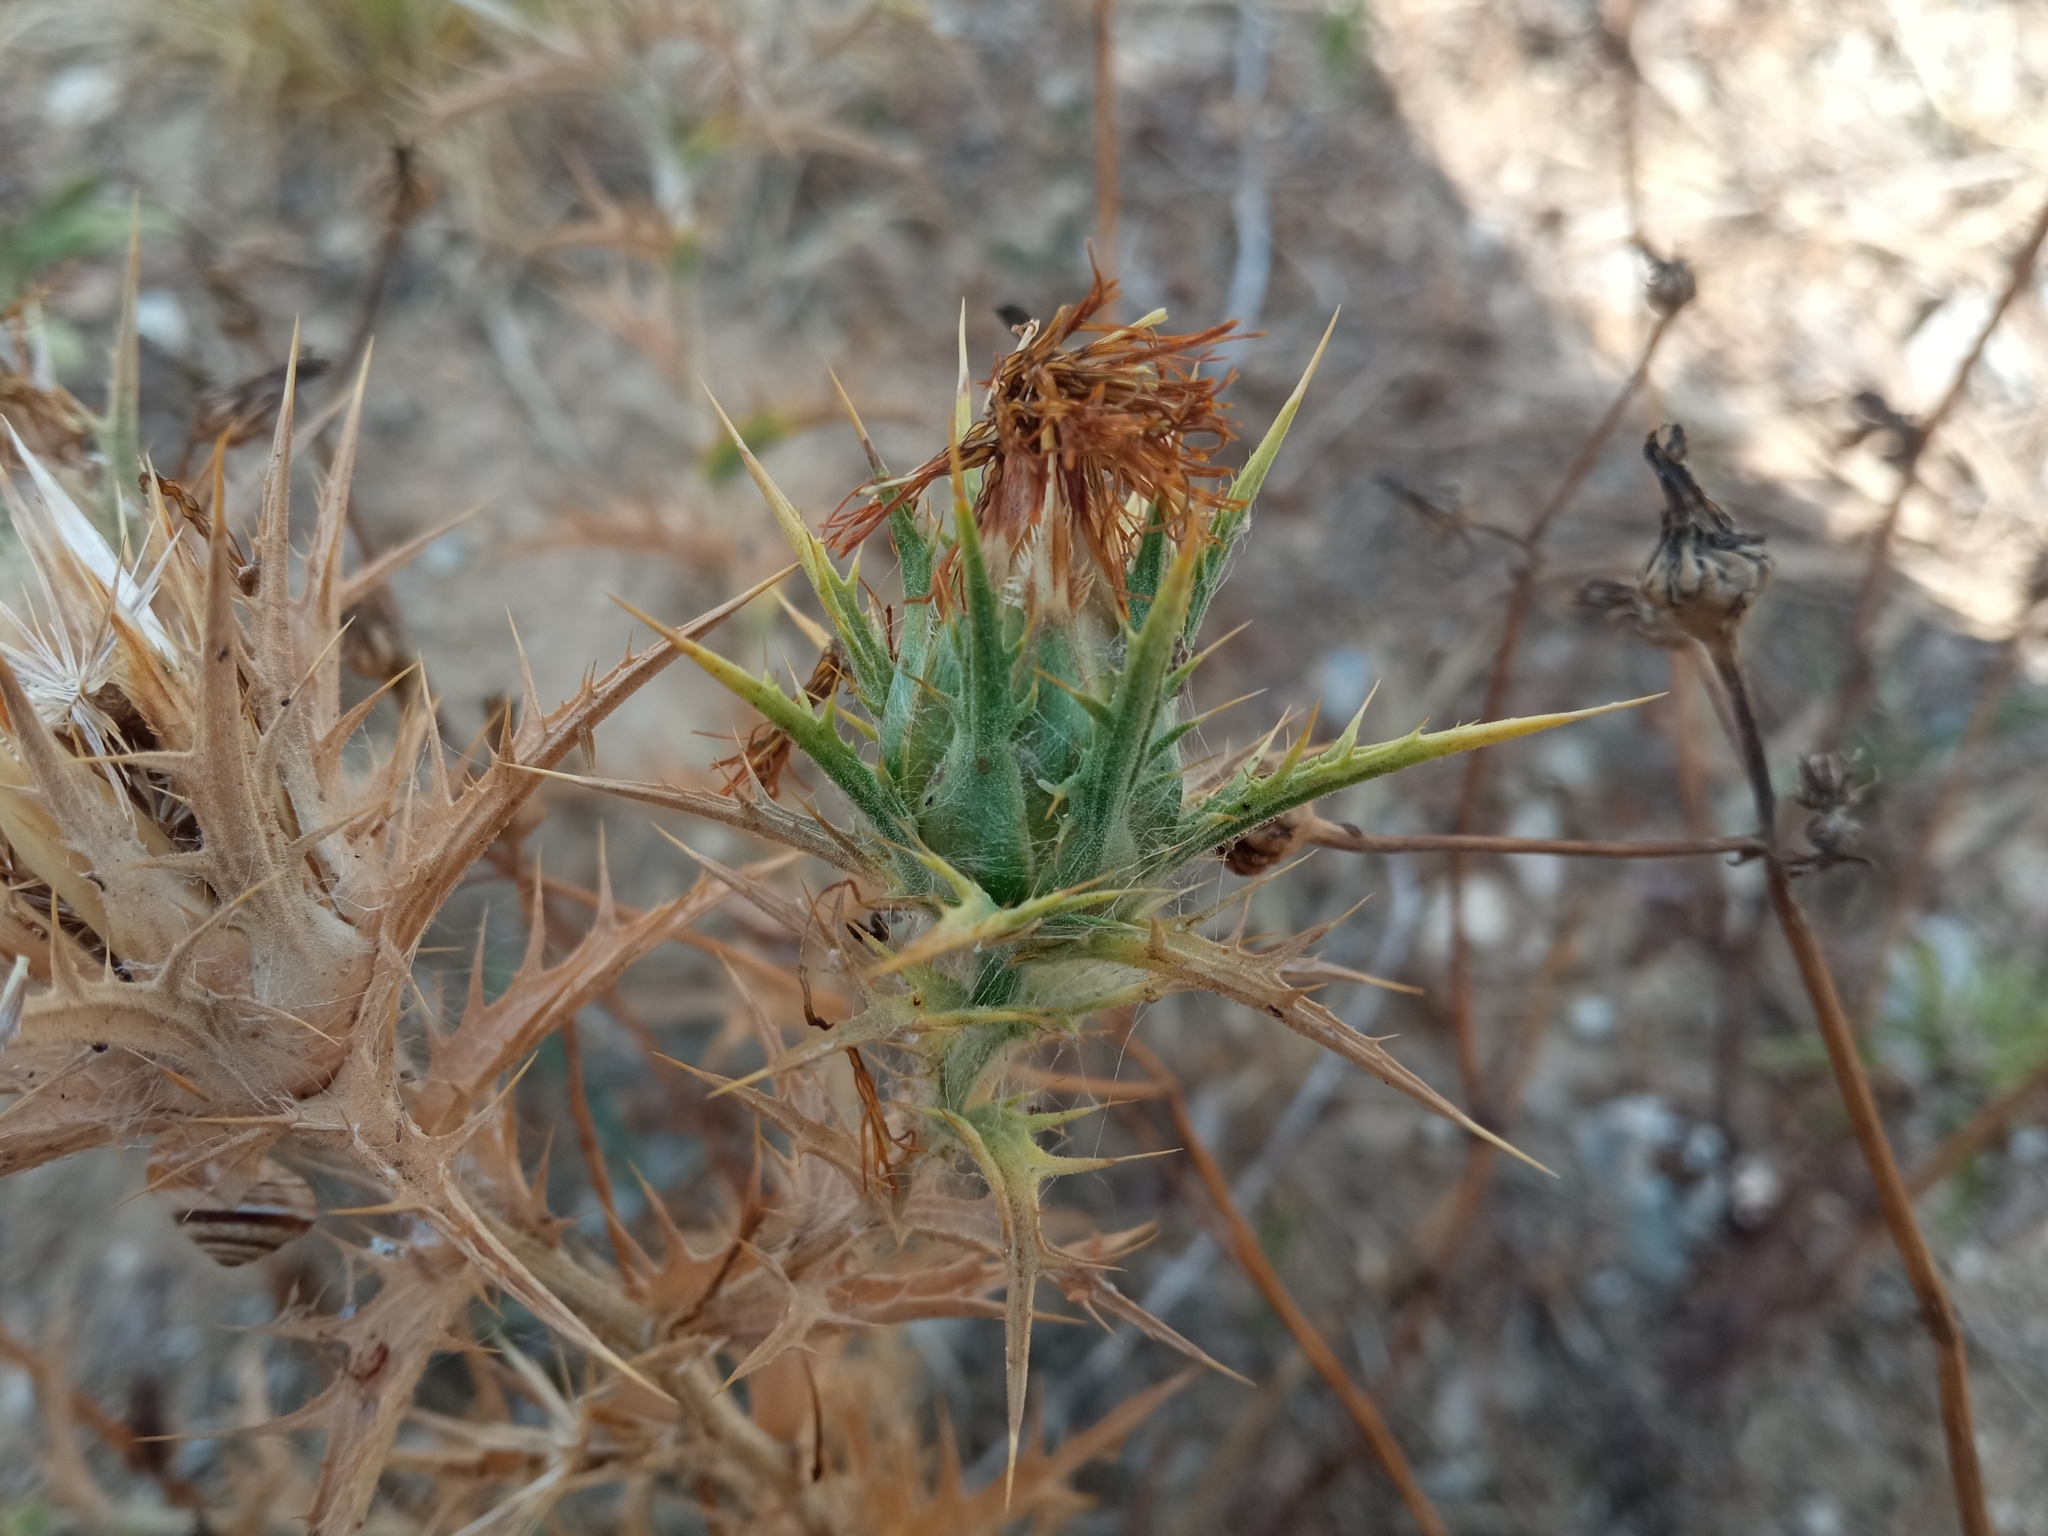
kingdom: Plantae
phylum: Tracheophyta
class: Magnoliopsida
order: Asterales
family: Asteraceae
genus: Carthamus
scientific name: Carthamus lanatus
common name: Downy safflower
